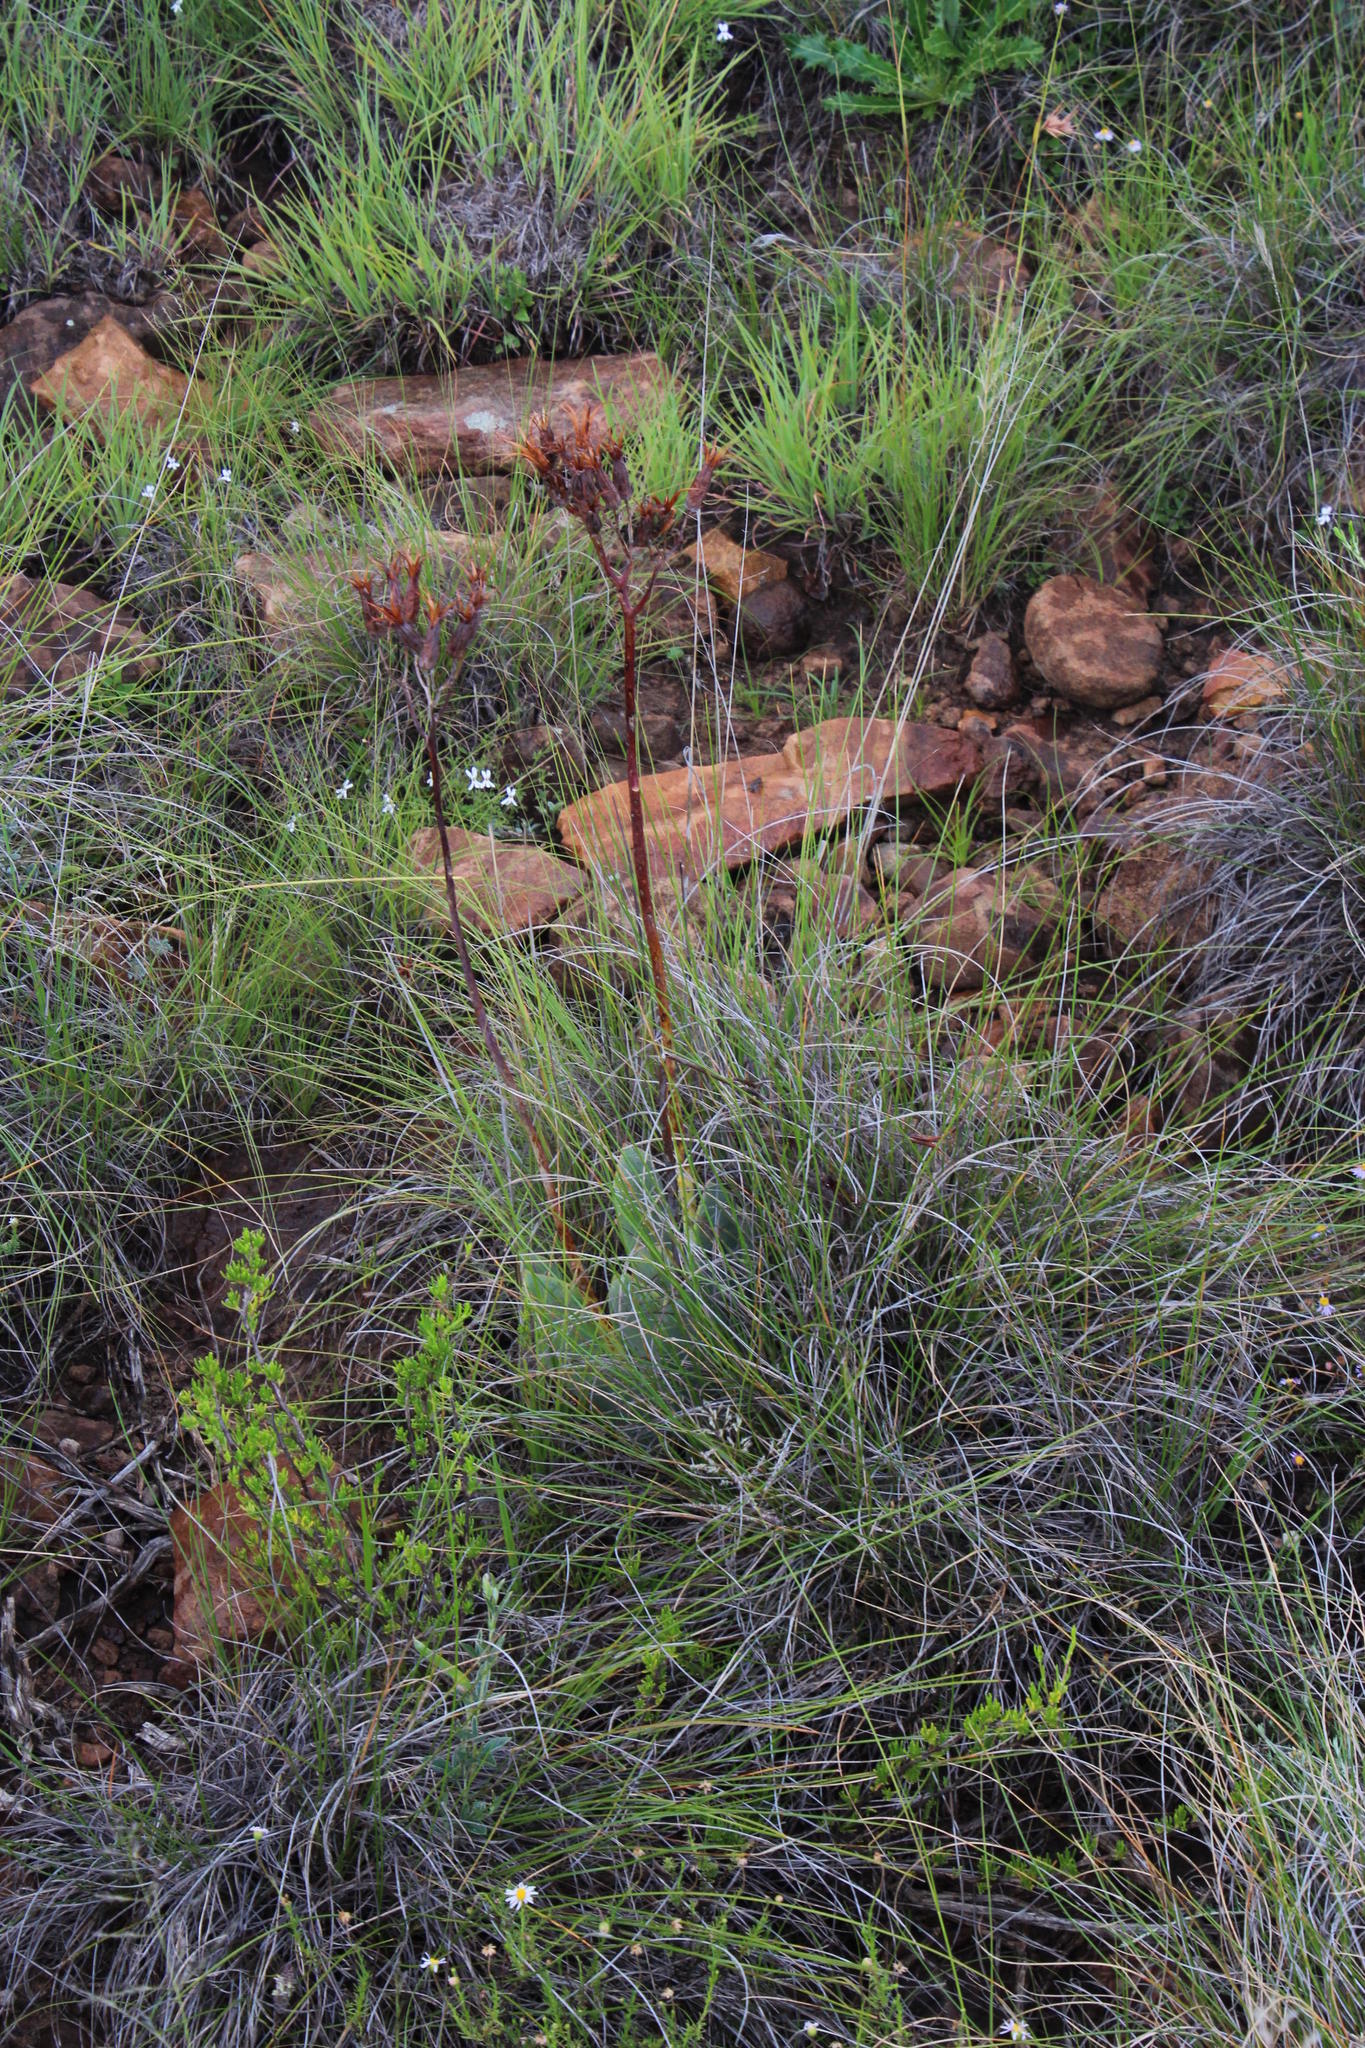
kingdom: Plantae
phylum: Tracheophyta
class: Magnoliopsida
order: Saxifragales
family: Crassulaceae
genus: Cotyledon
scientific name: Cotyledon orbiculata
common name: Pig's ear
